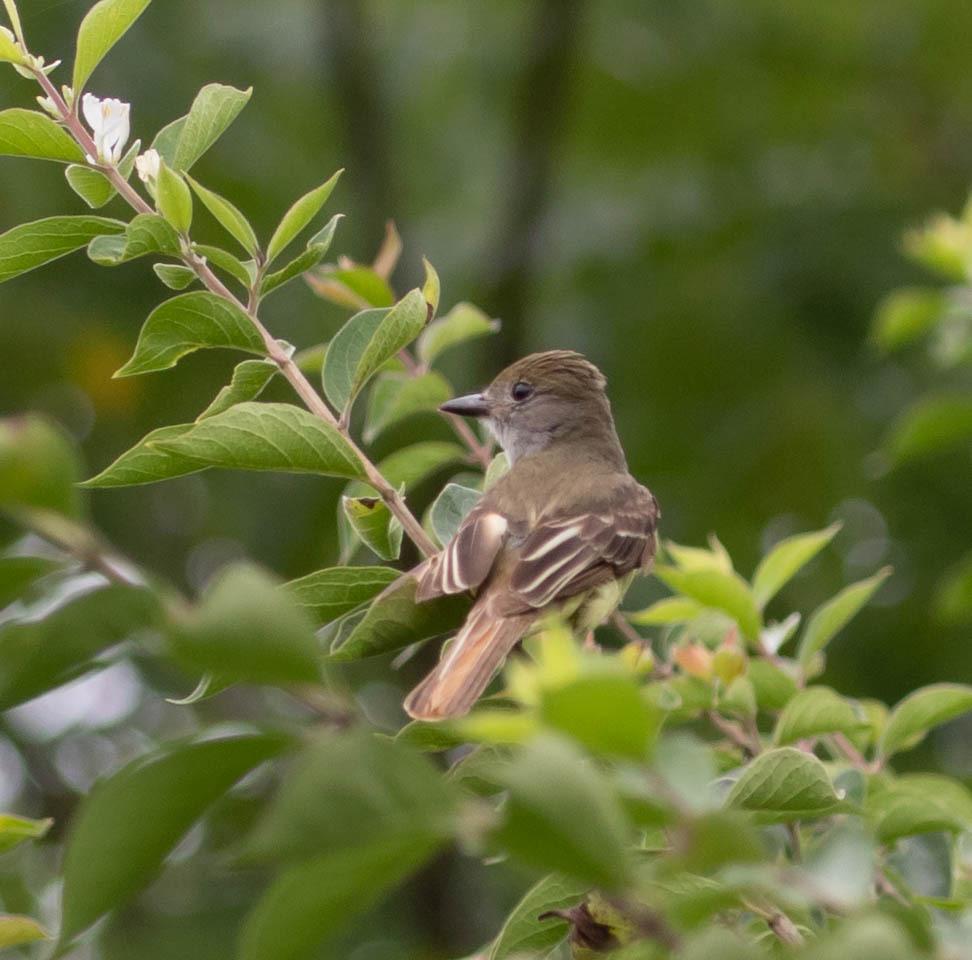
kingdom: Animalia
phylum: Chordata
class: Aves
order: Passeriformes
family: Tyrannidae
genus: Myiarchus
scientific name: Myiarchus crinitus
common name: Great crested flycatcher
